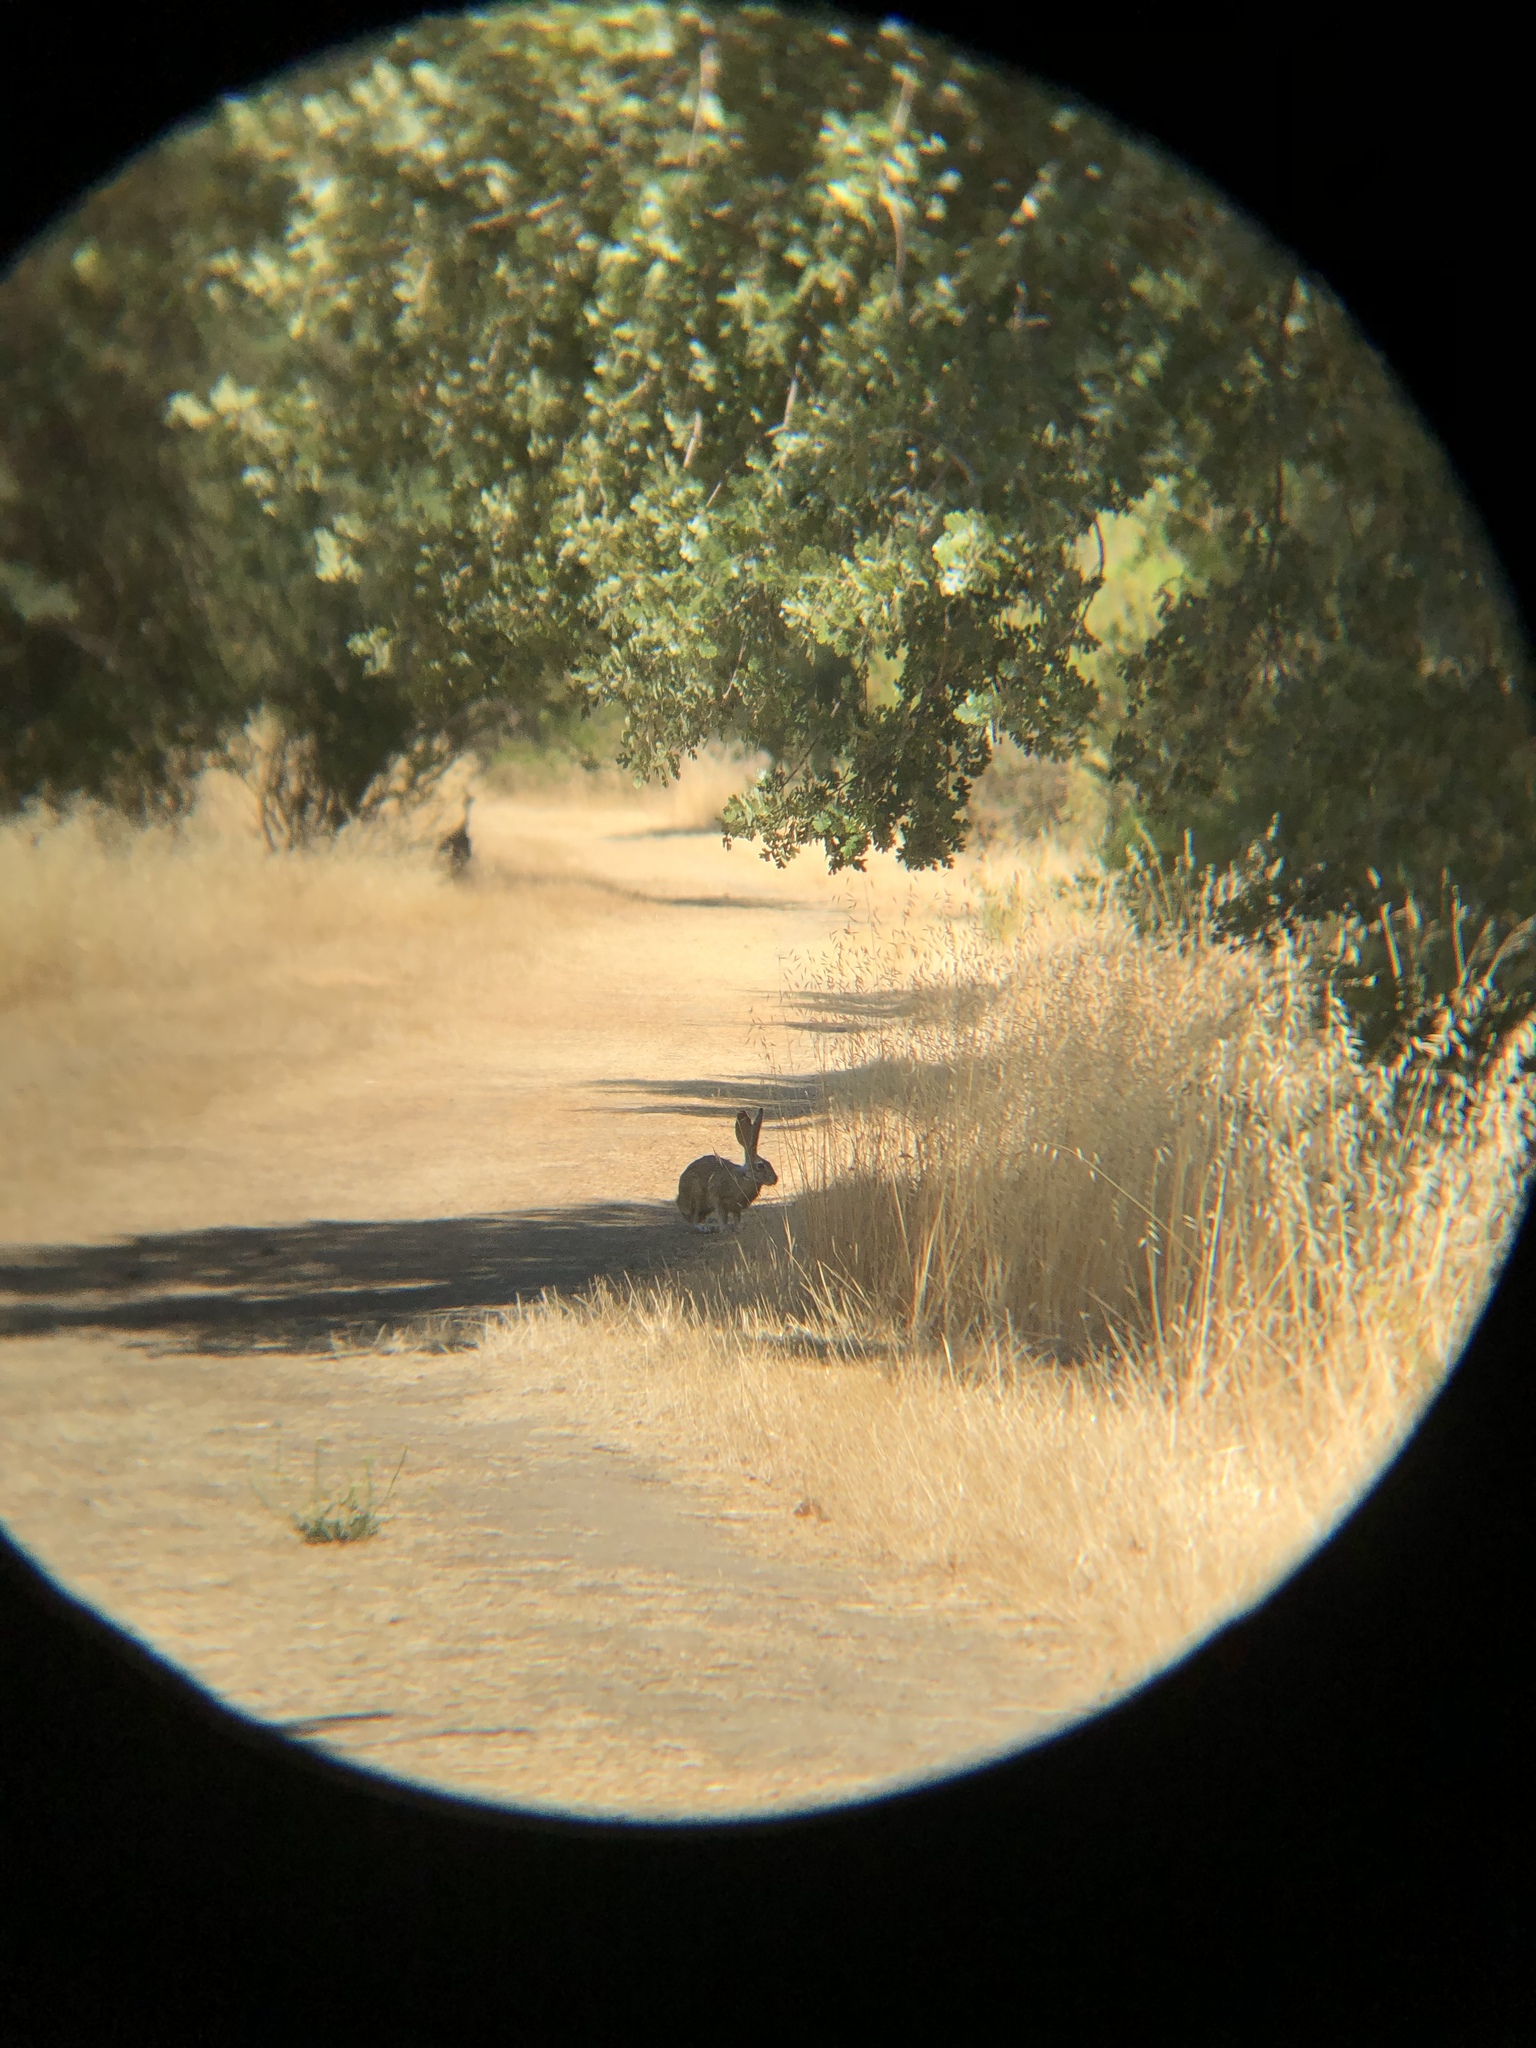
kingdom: Animalia
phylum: Chordata
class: Mammalia
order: Lagomorpha
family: Leporidae
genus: Lepus
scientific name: Lepus californicus
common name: Black-tailed jackrabbit
